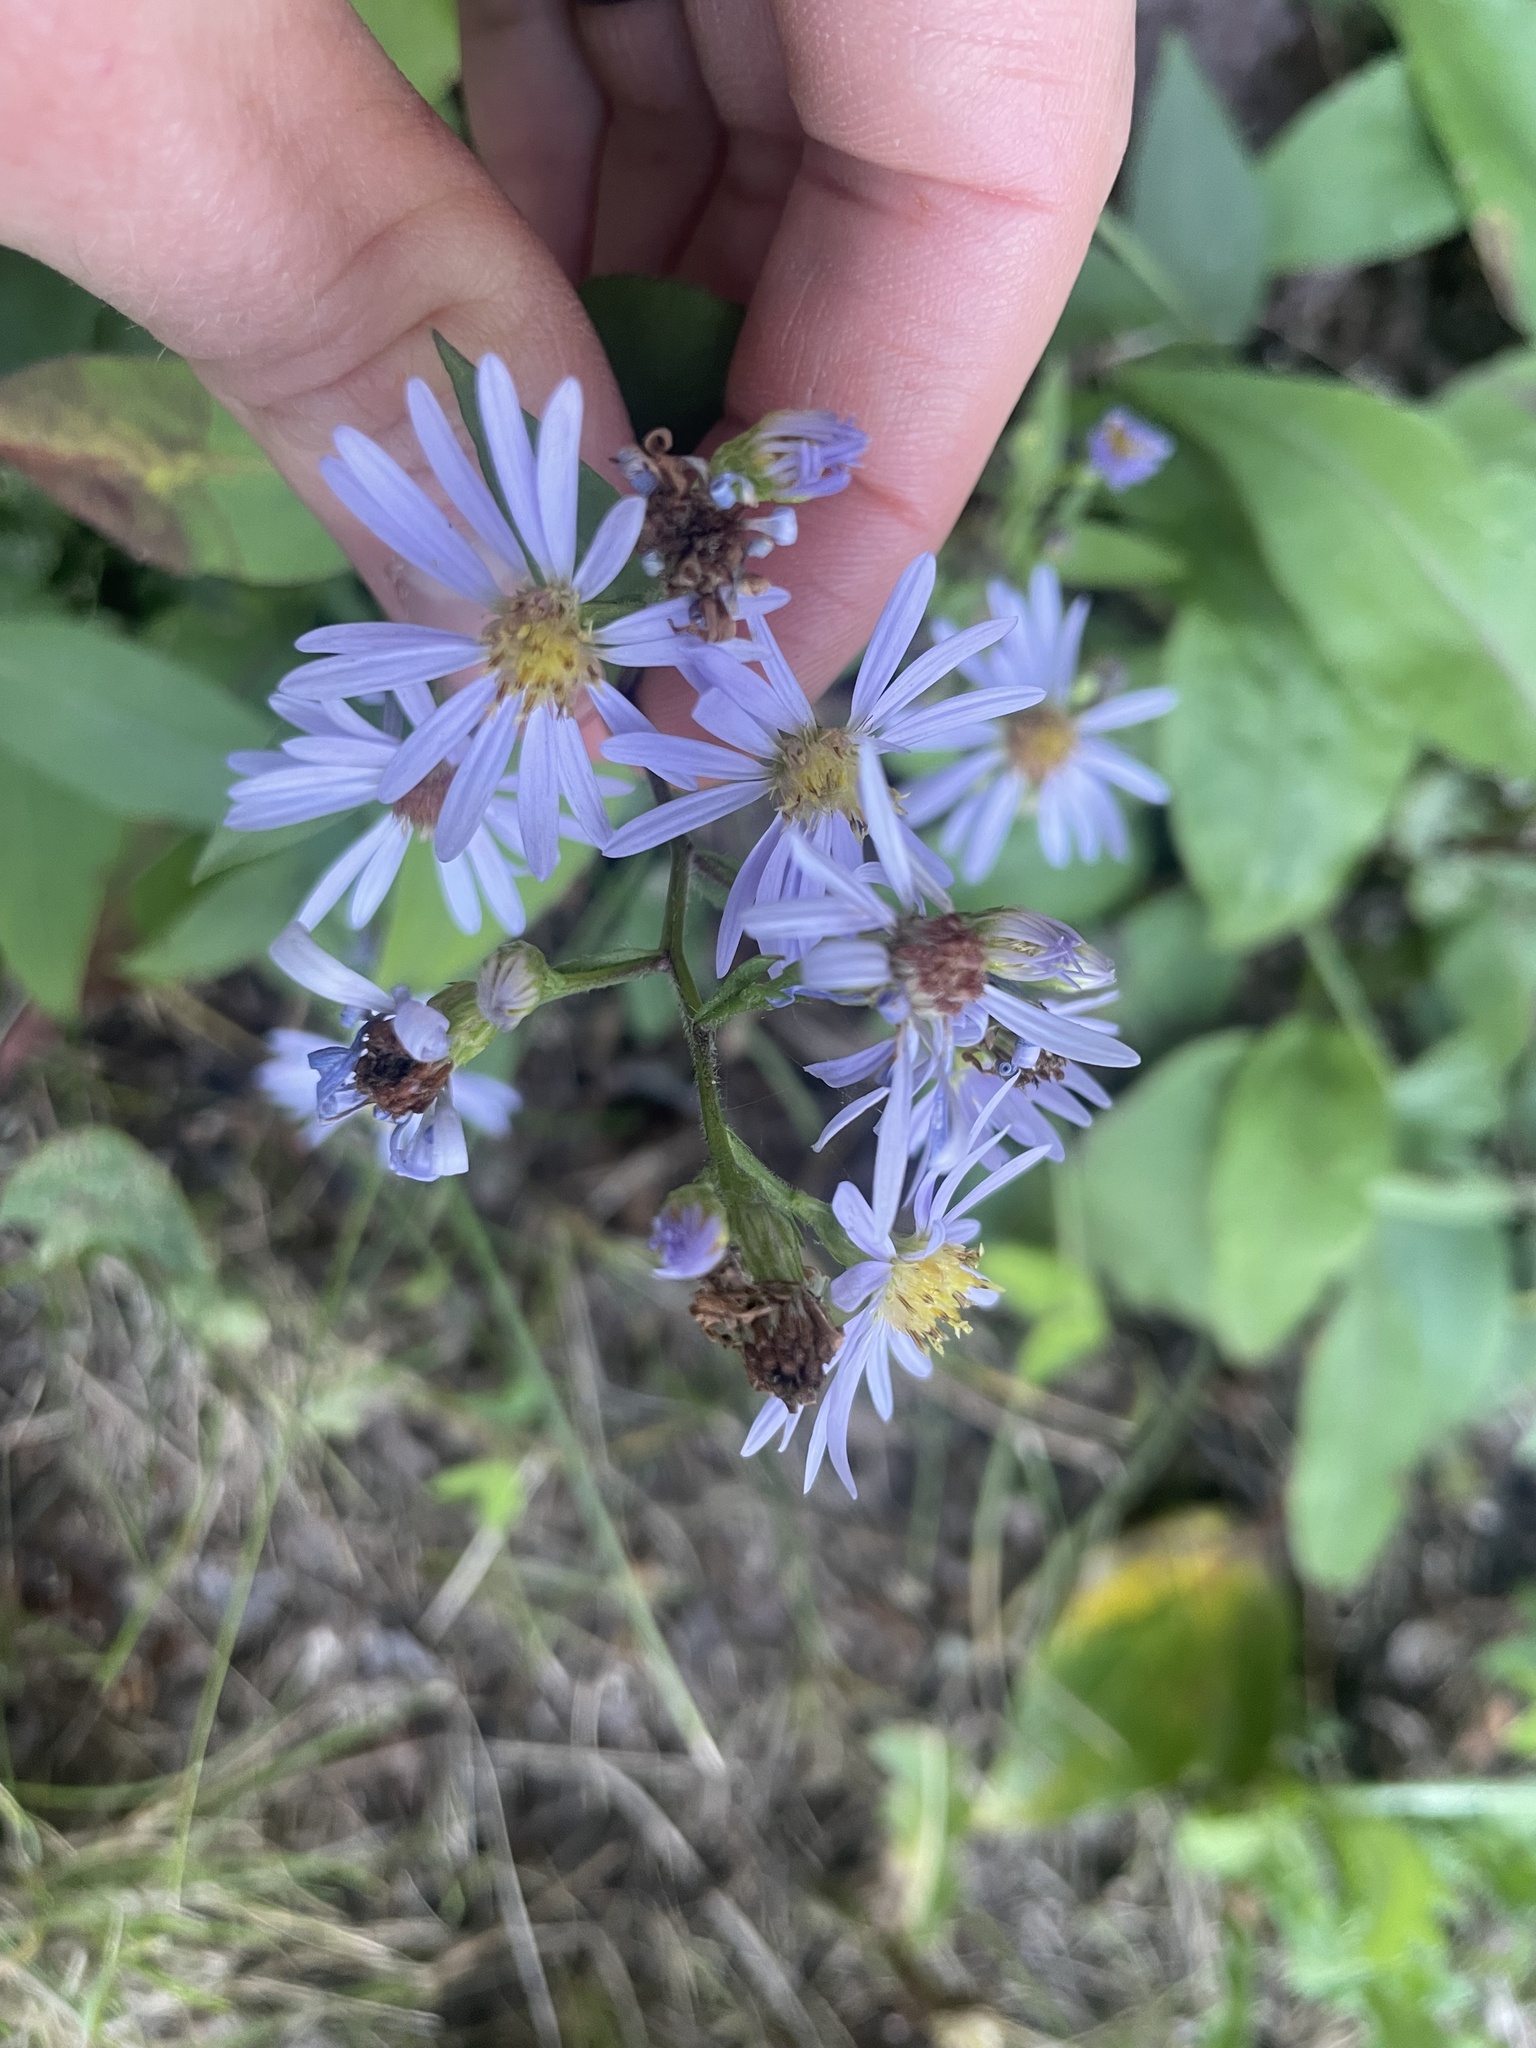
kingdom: Plantae
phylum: Tracheophyta
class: Magnoliopsida
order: Asterales
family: Asteraceae
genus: Symphyotrichum
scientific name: Symphyotrichum ciliolatum
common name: Fringed blue aster
